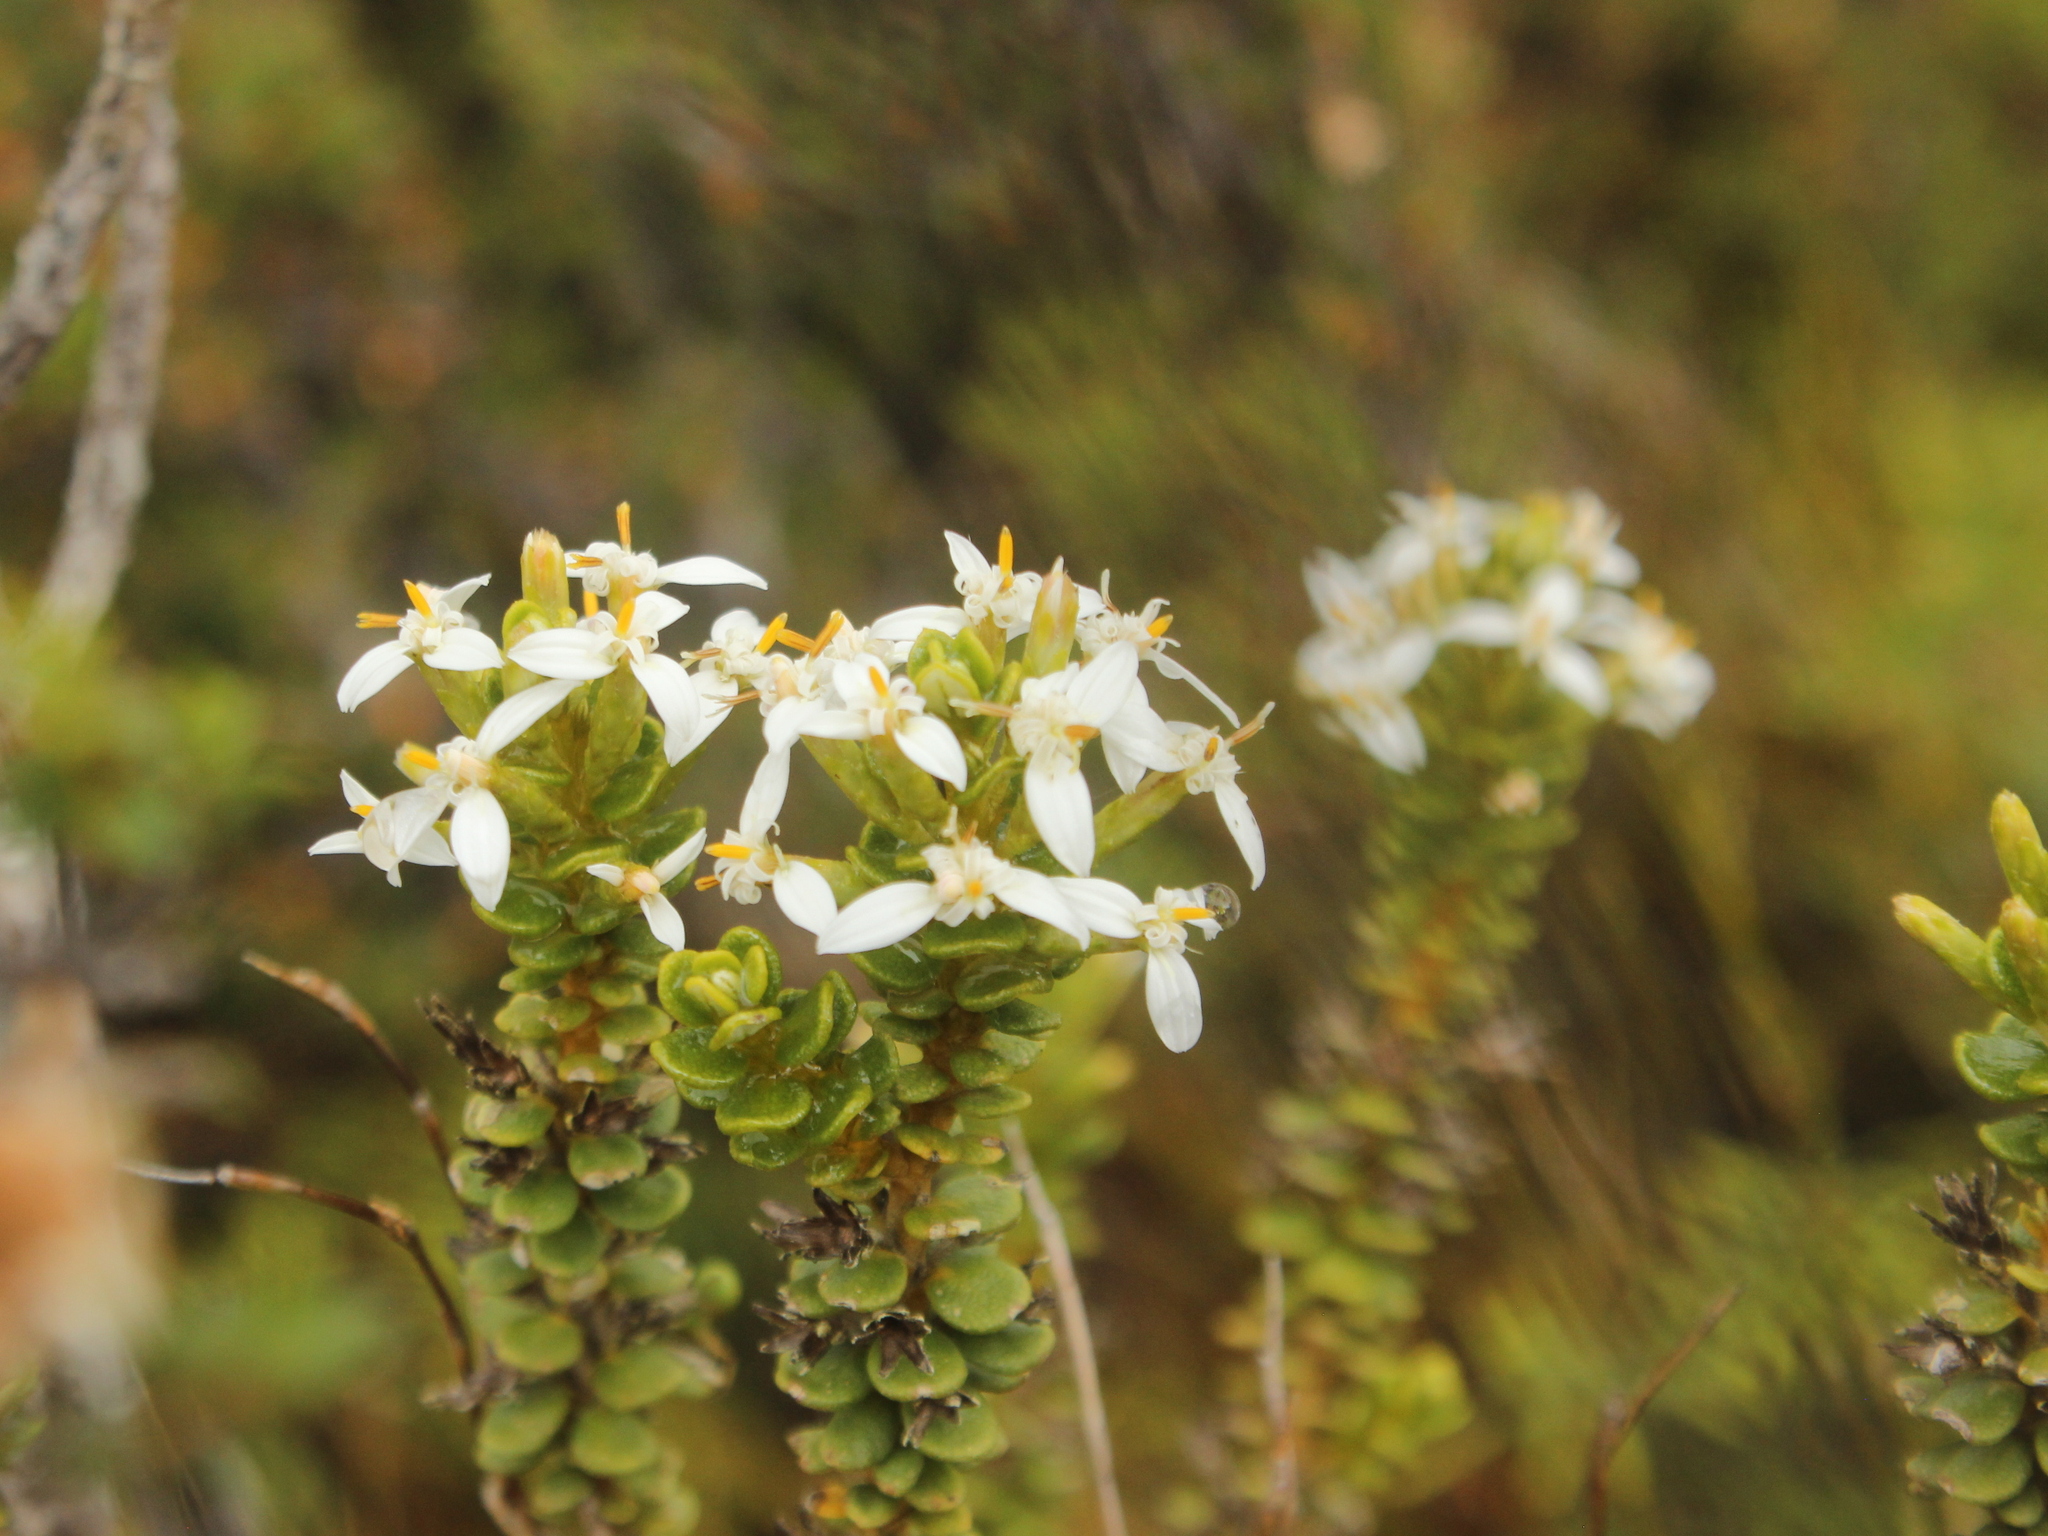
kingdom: Plantae
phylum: Tracheophyta
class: Magnoliopsida
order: Asterales
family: Asteraceae
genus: Olearia
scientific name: Olearia nummularifolia
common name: Sticky daisybush
